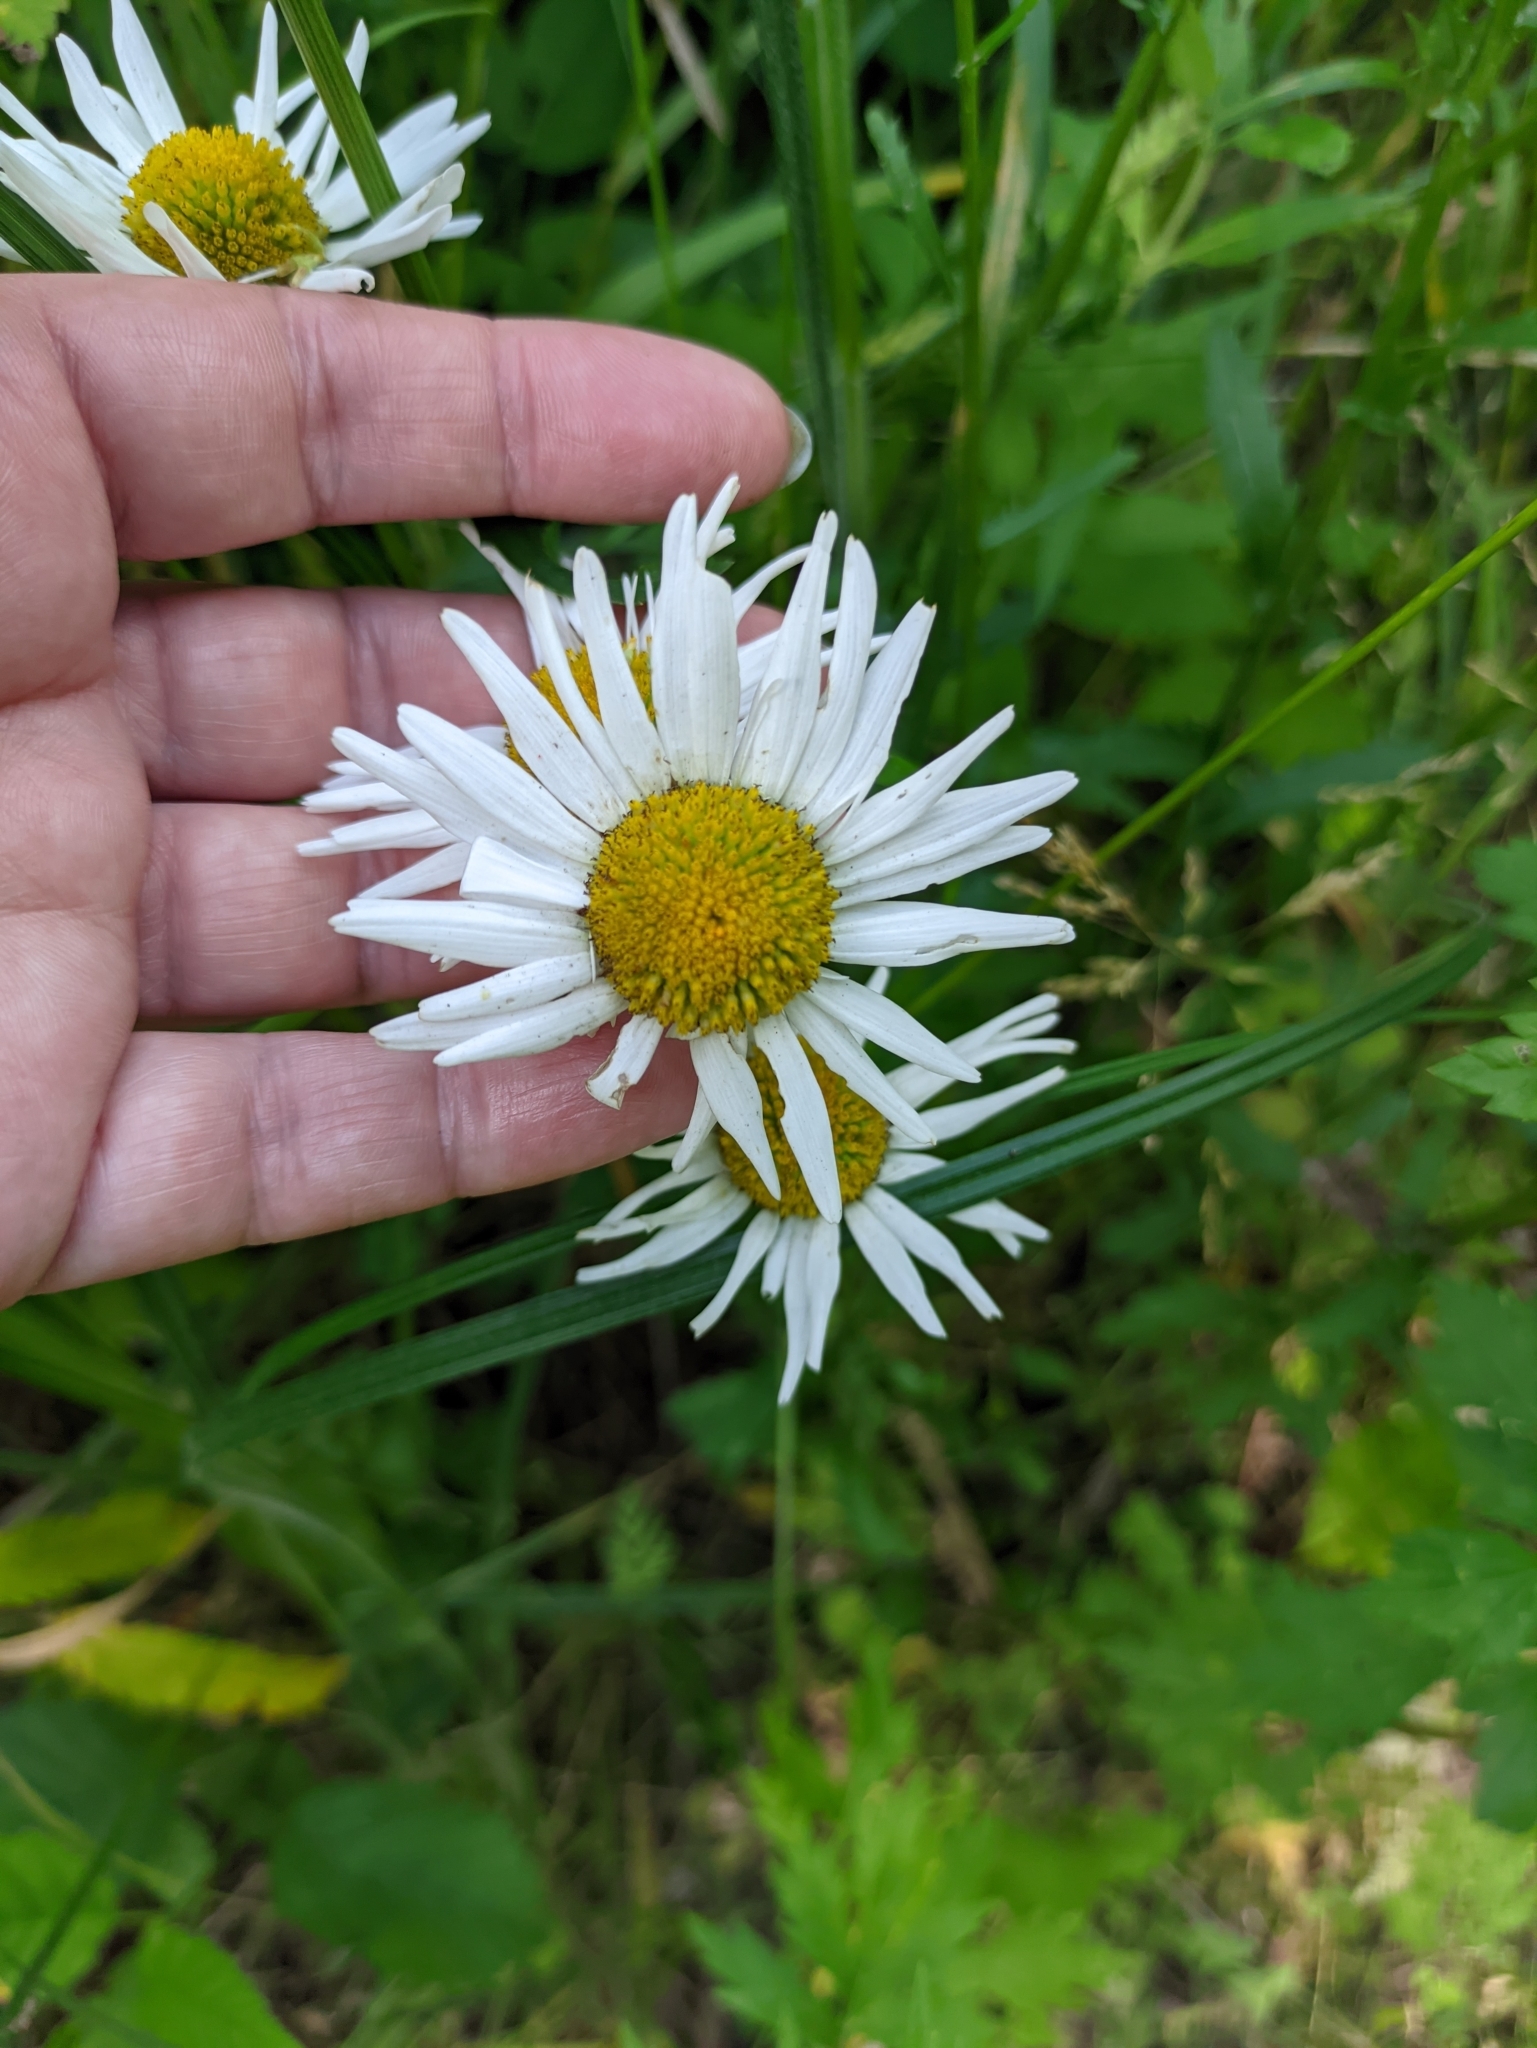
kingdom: Plantae
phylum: Tracheophyta
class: Magnoliopsida
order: Asterales
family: Asteraceae
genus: Leucanthemum
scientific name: Leucanthemum vulgare
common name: Oxeye daisy
